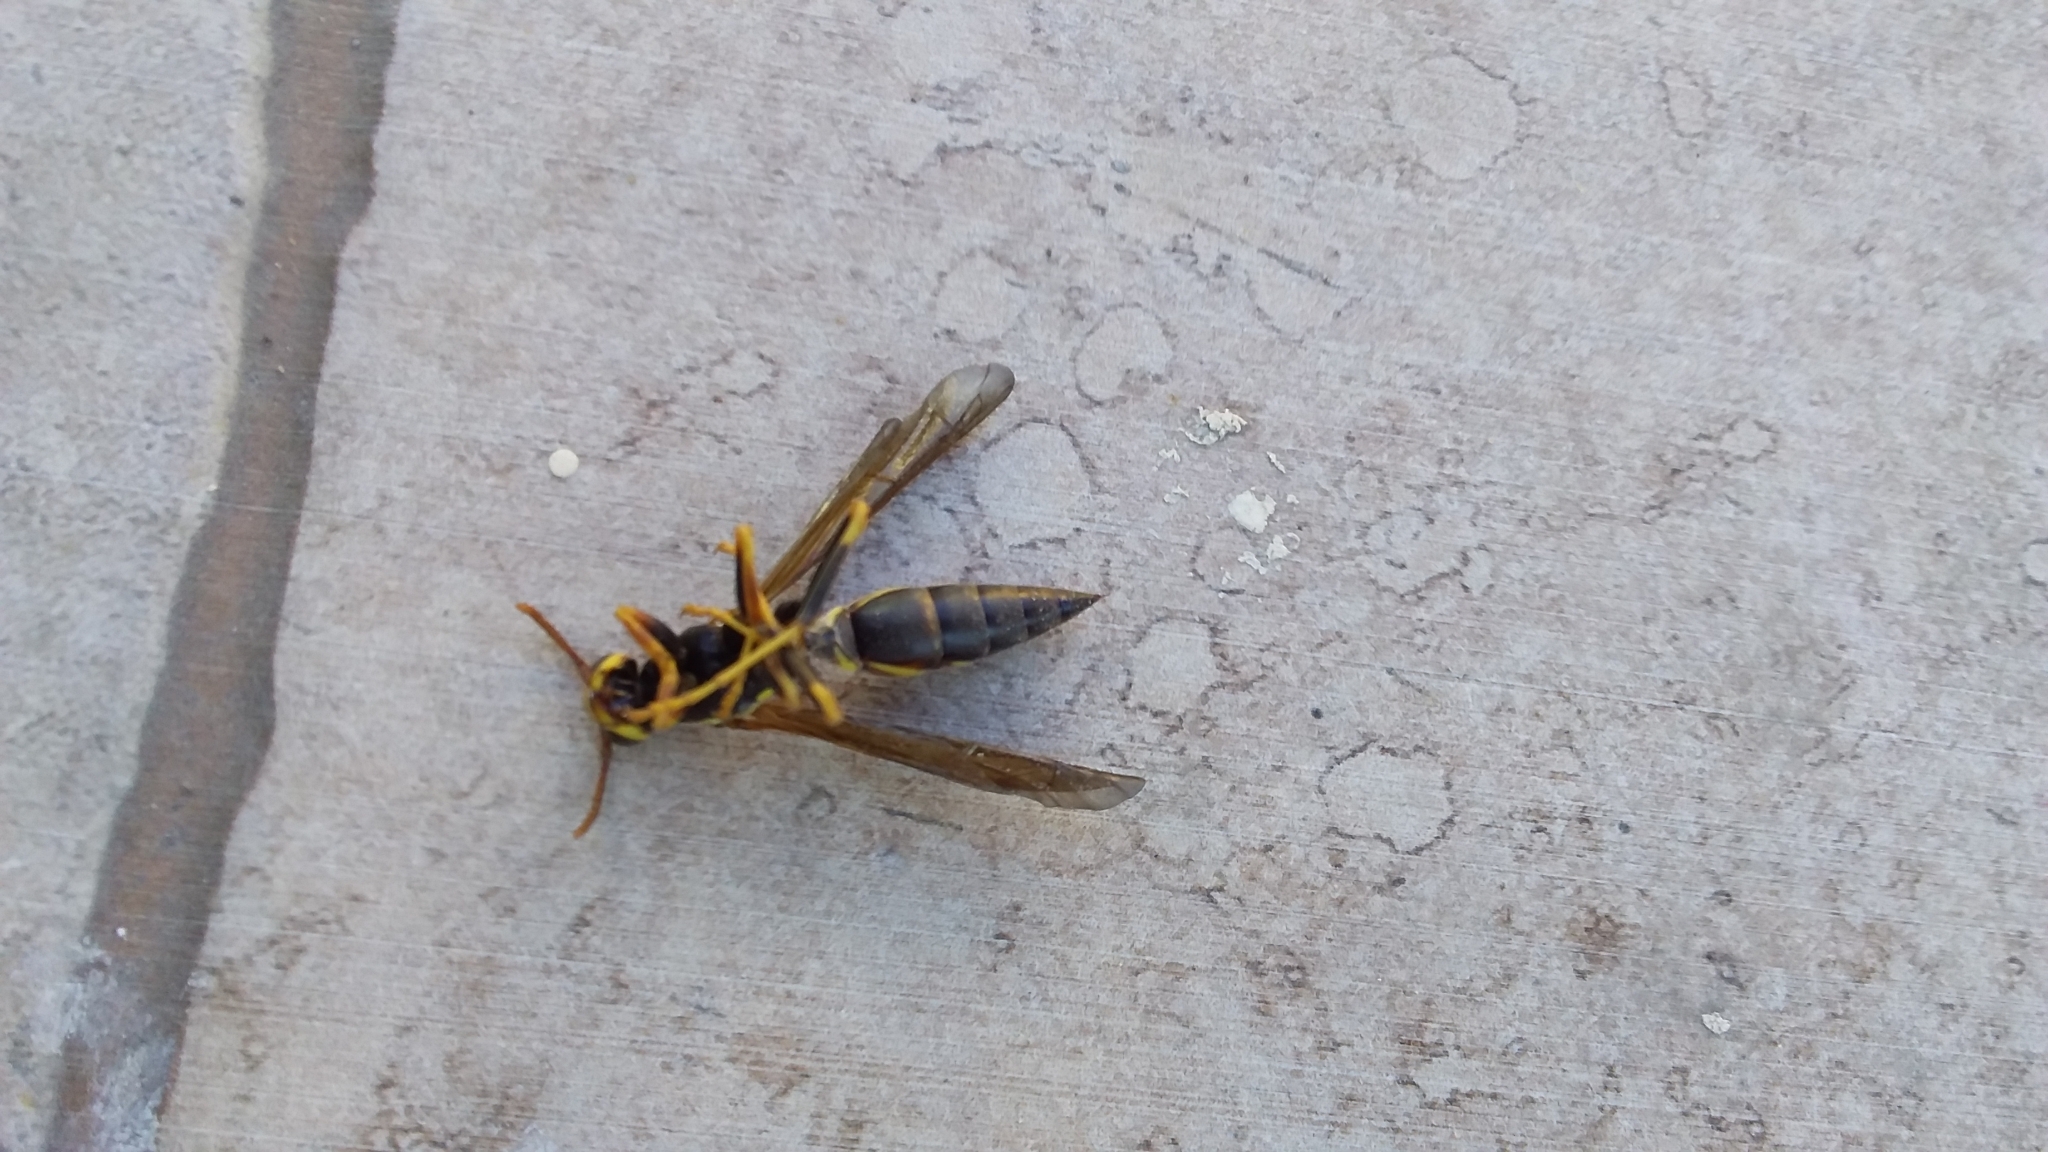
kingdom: Animalia
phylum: Arthropoda
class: Insecta
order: Hymenoptera
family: Eumenidae
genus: Polistes
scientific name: Polistes instabilis
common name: Unstable paper wasp
